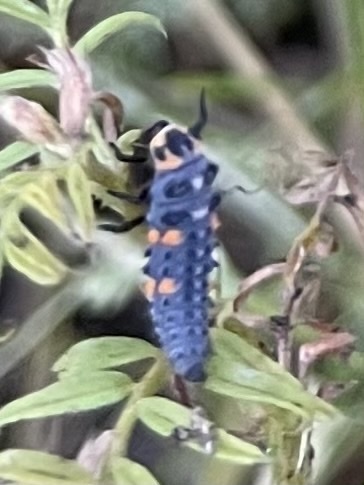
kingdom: Animalia
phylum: Arthropoda
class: Insecta
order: Coleoptera
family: Coccinellidae
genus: Coccinella
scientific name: Coccinella septempunctata
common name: Sevenspotted lady beetle
